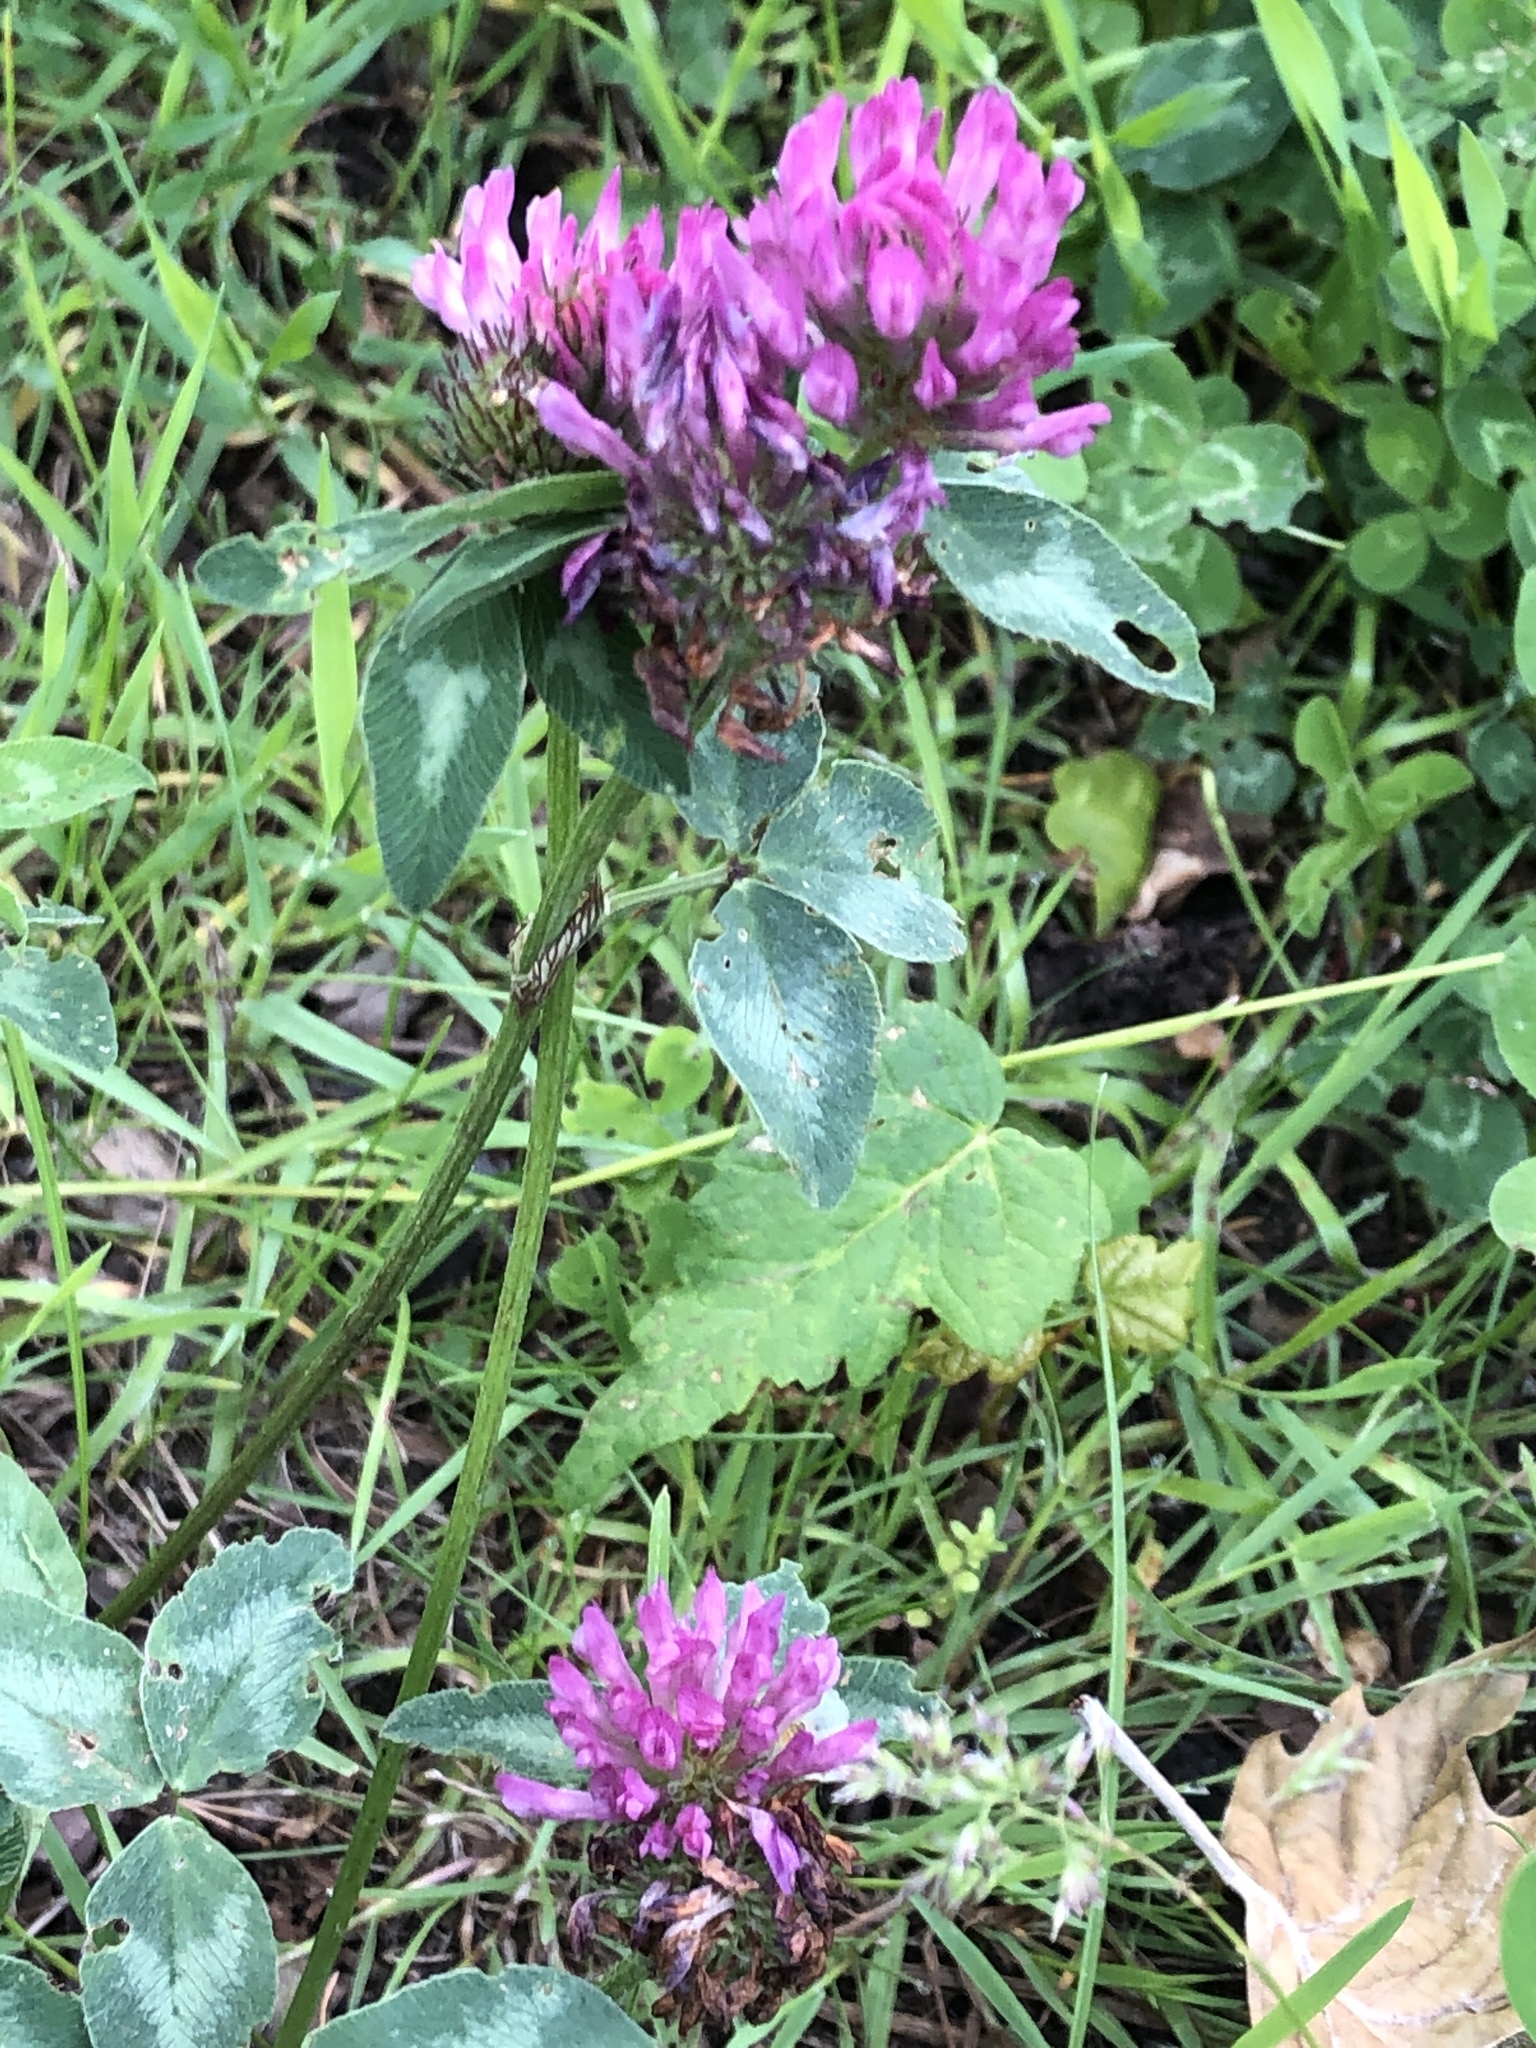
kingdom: Plantae
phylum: Tracheophyta
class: Magnoliopsida
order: Fabales
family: Fabaceae
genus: Trifolium
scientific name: Trifolium pratense
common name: Red clover
